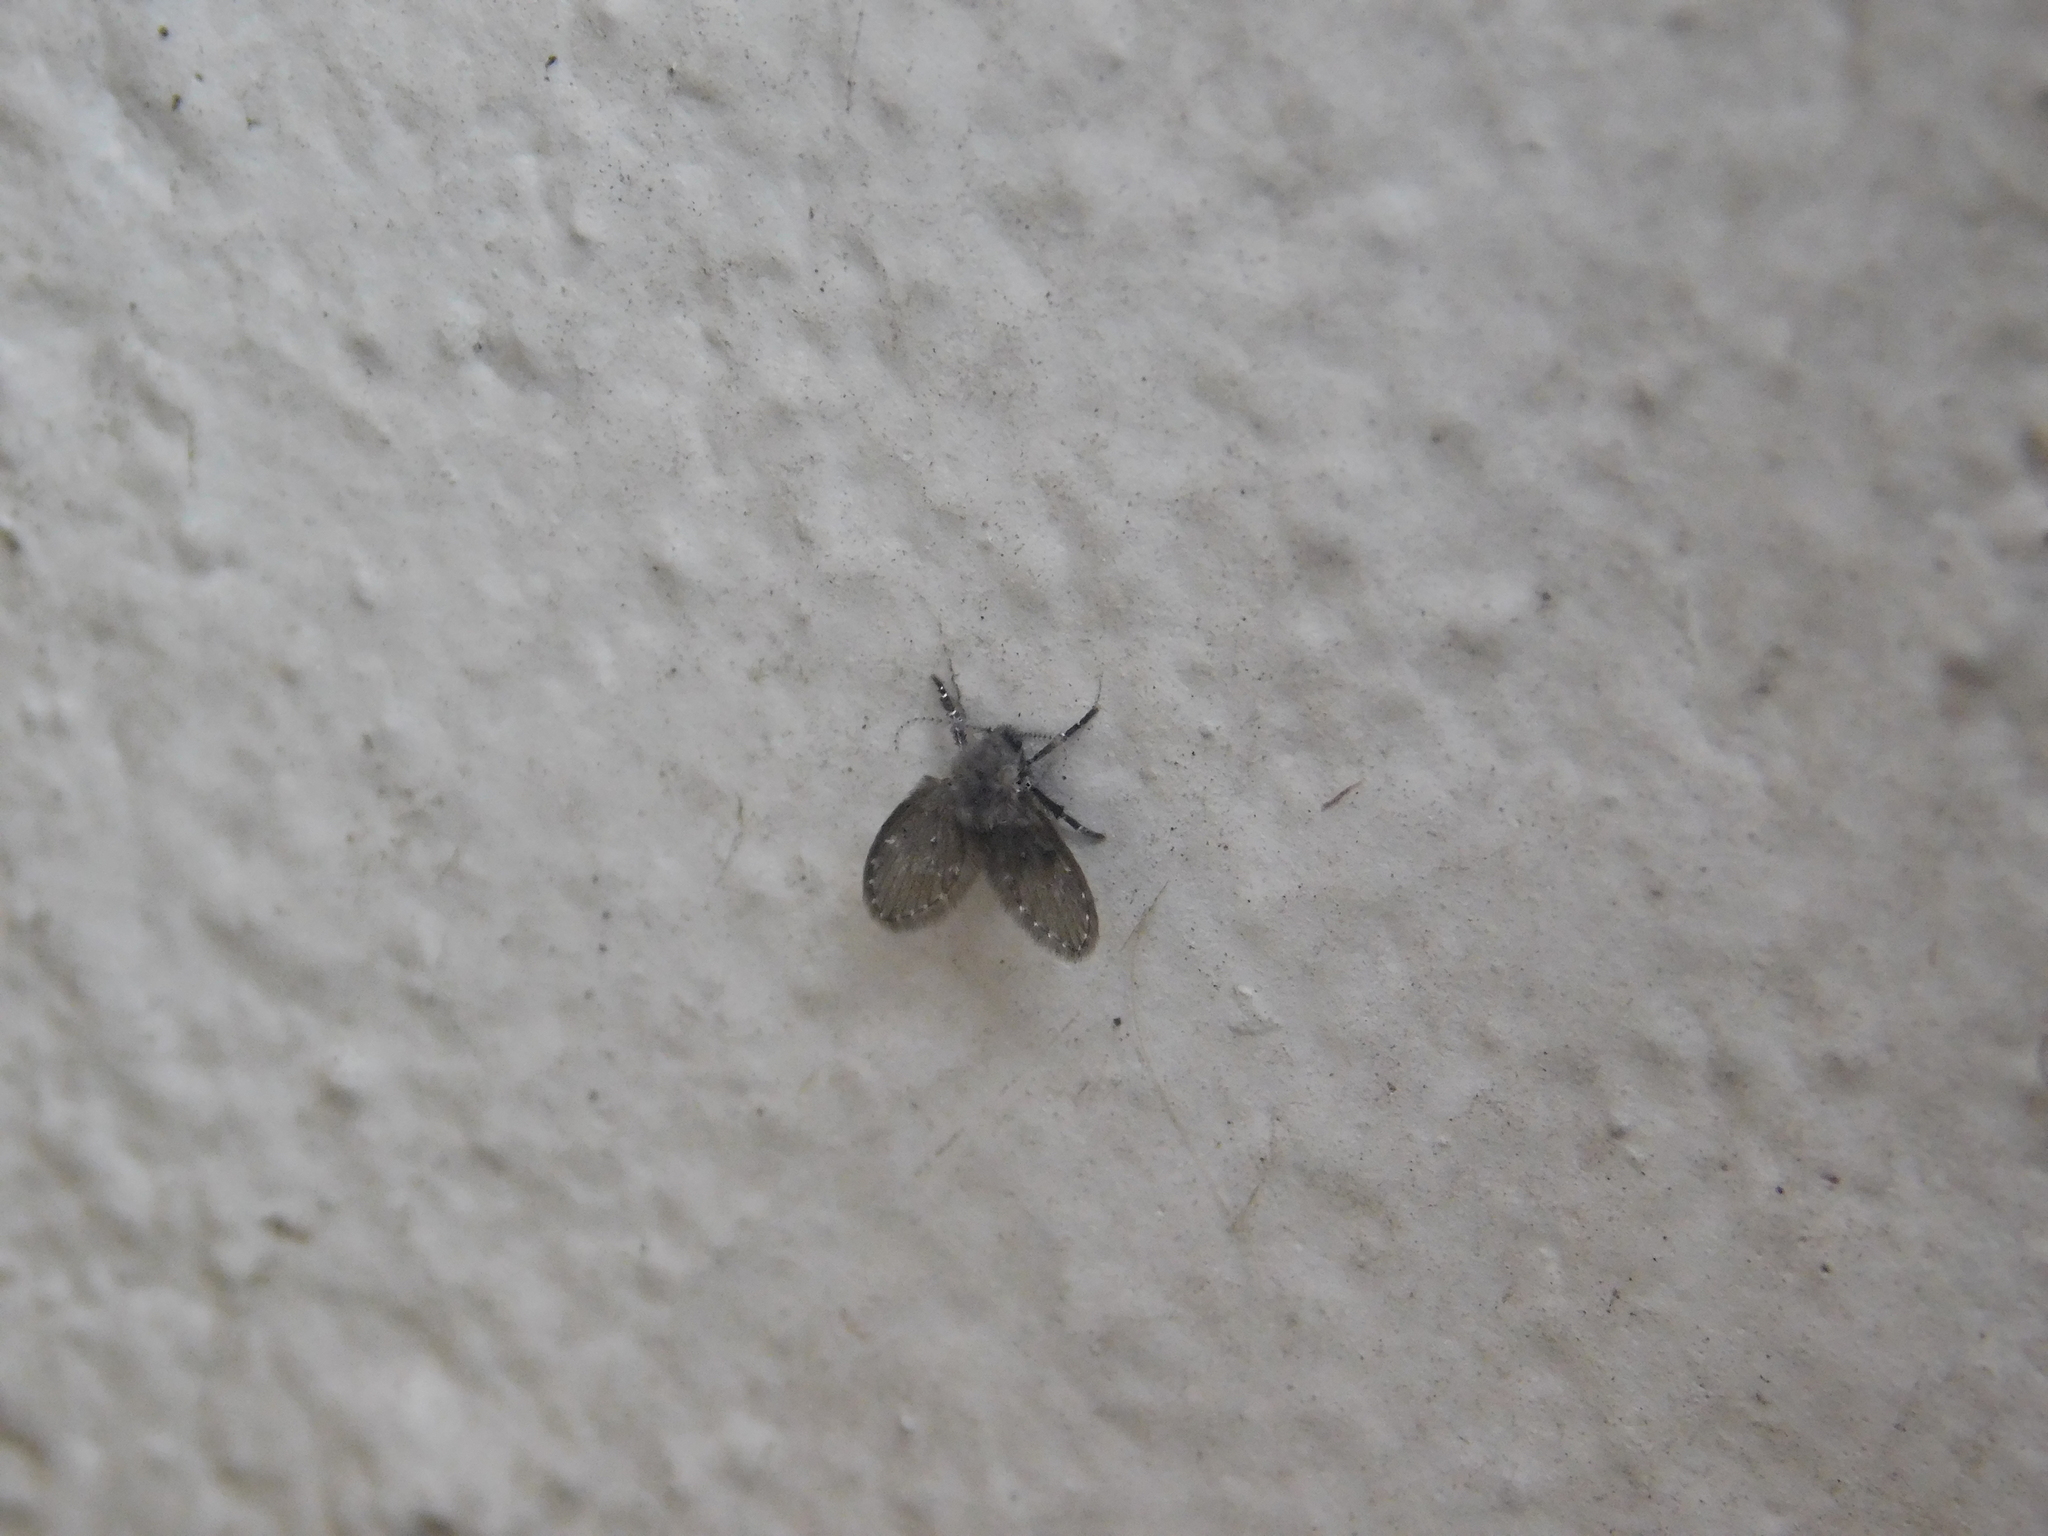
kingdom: Animalia
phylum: Arthropoda
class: Insecta
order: Diptera
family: Psychodidae
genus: Clogmia
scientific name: Clogmia albipunctatus
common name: White-spotted moth fly
